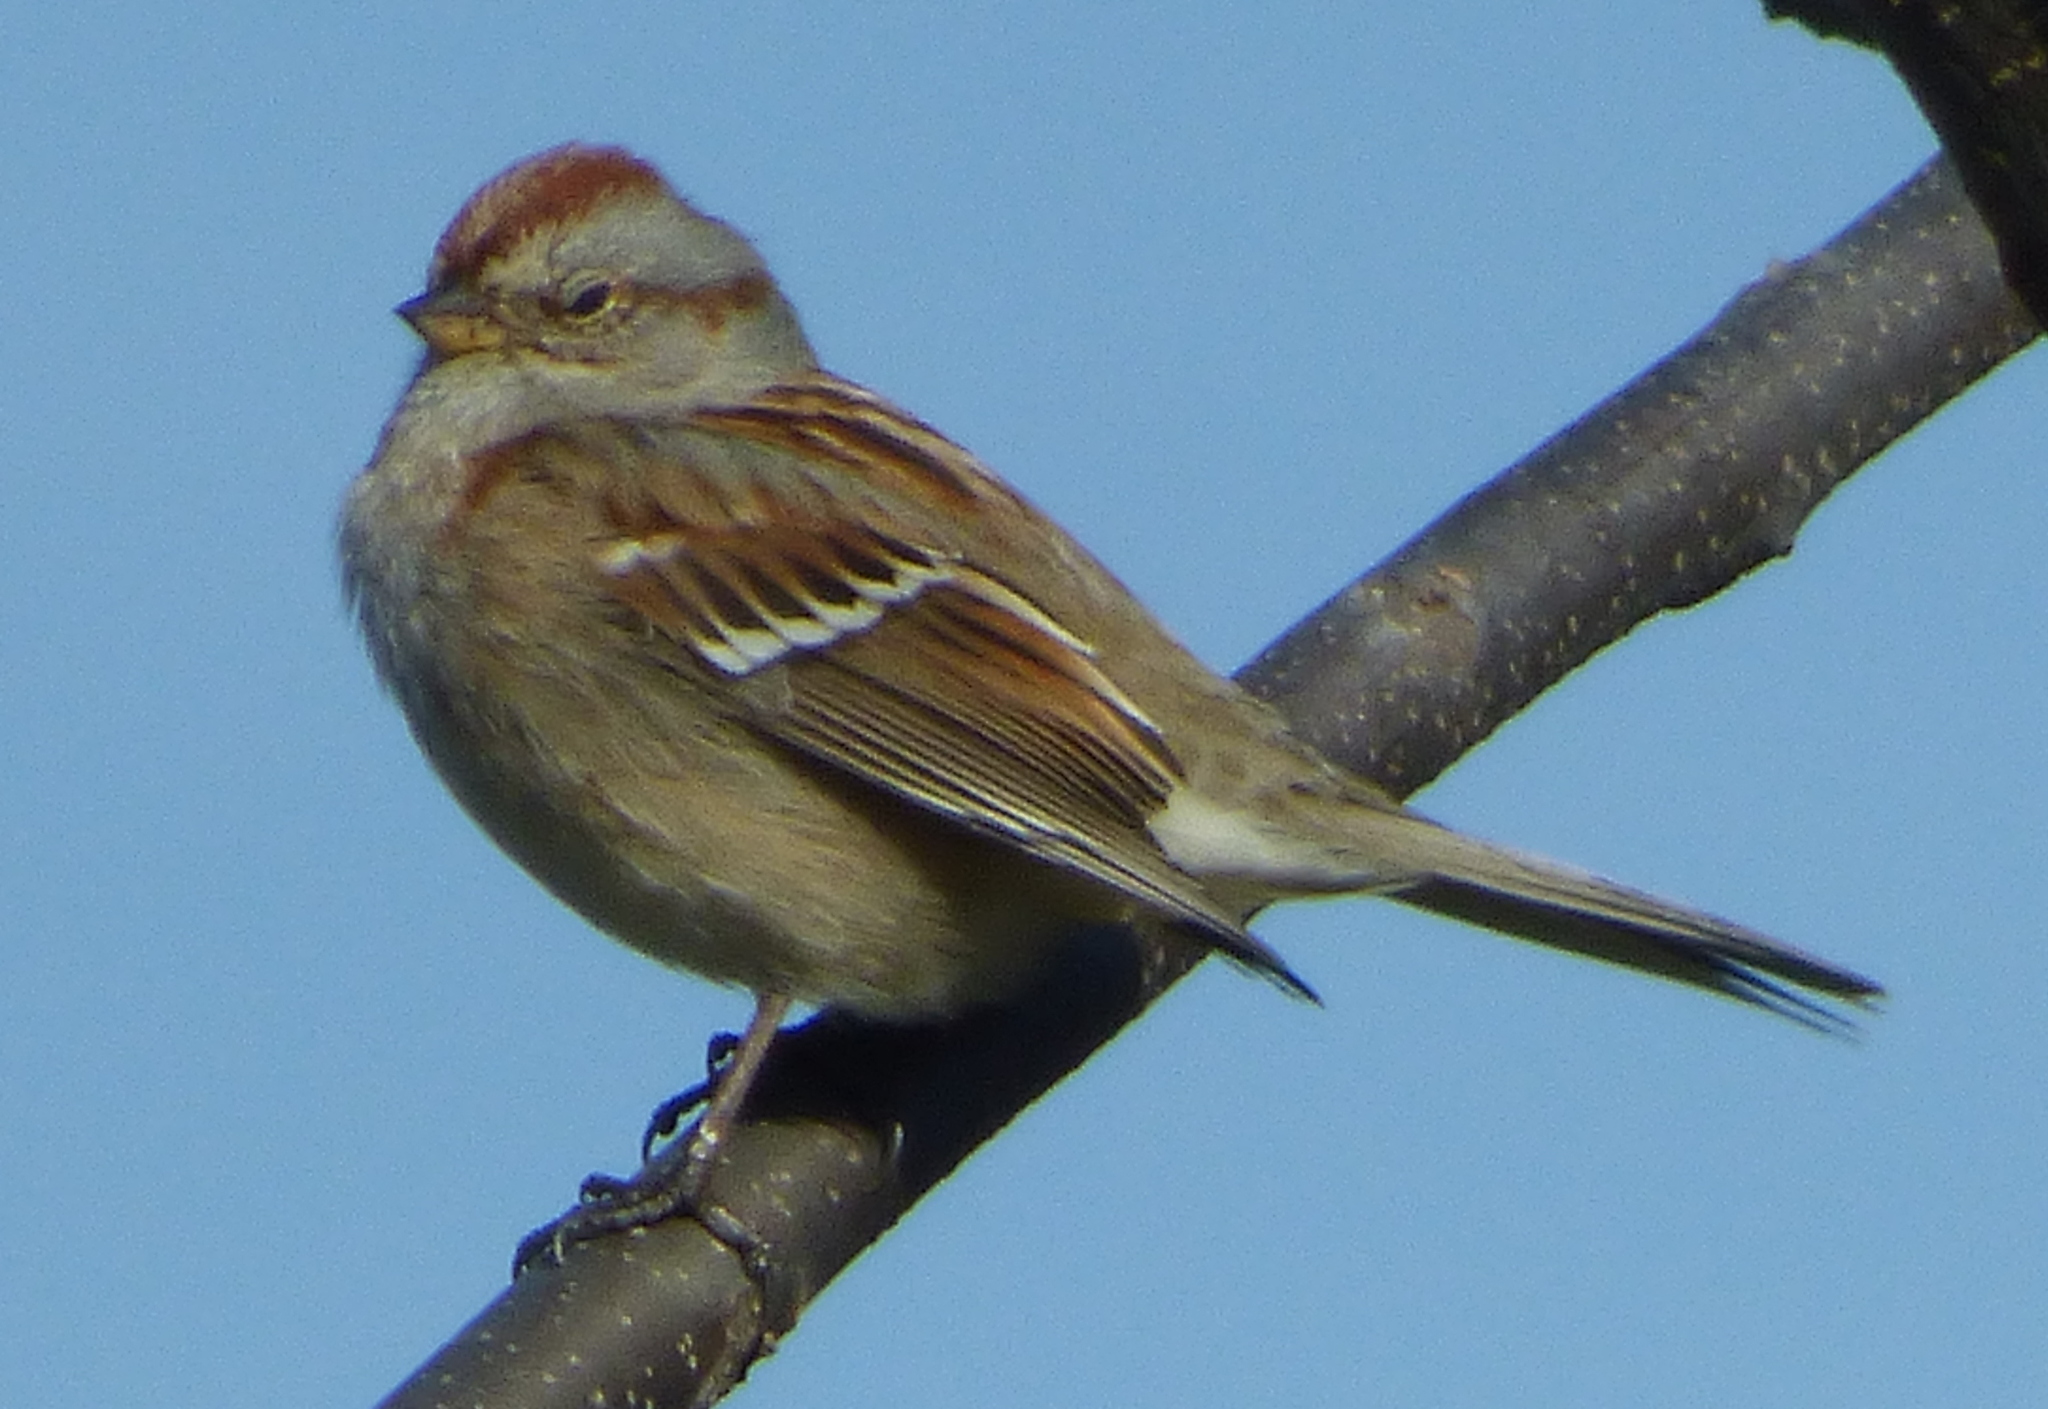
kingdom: Animalia
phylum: Chordata
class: Aves
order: Passeriformes
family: Passerellidae
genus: Spizelloides
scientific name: Spizelloides arborea
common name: American tree sparrow
